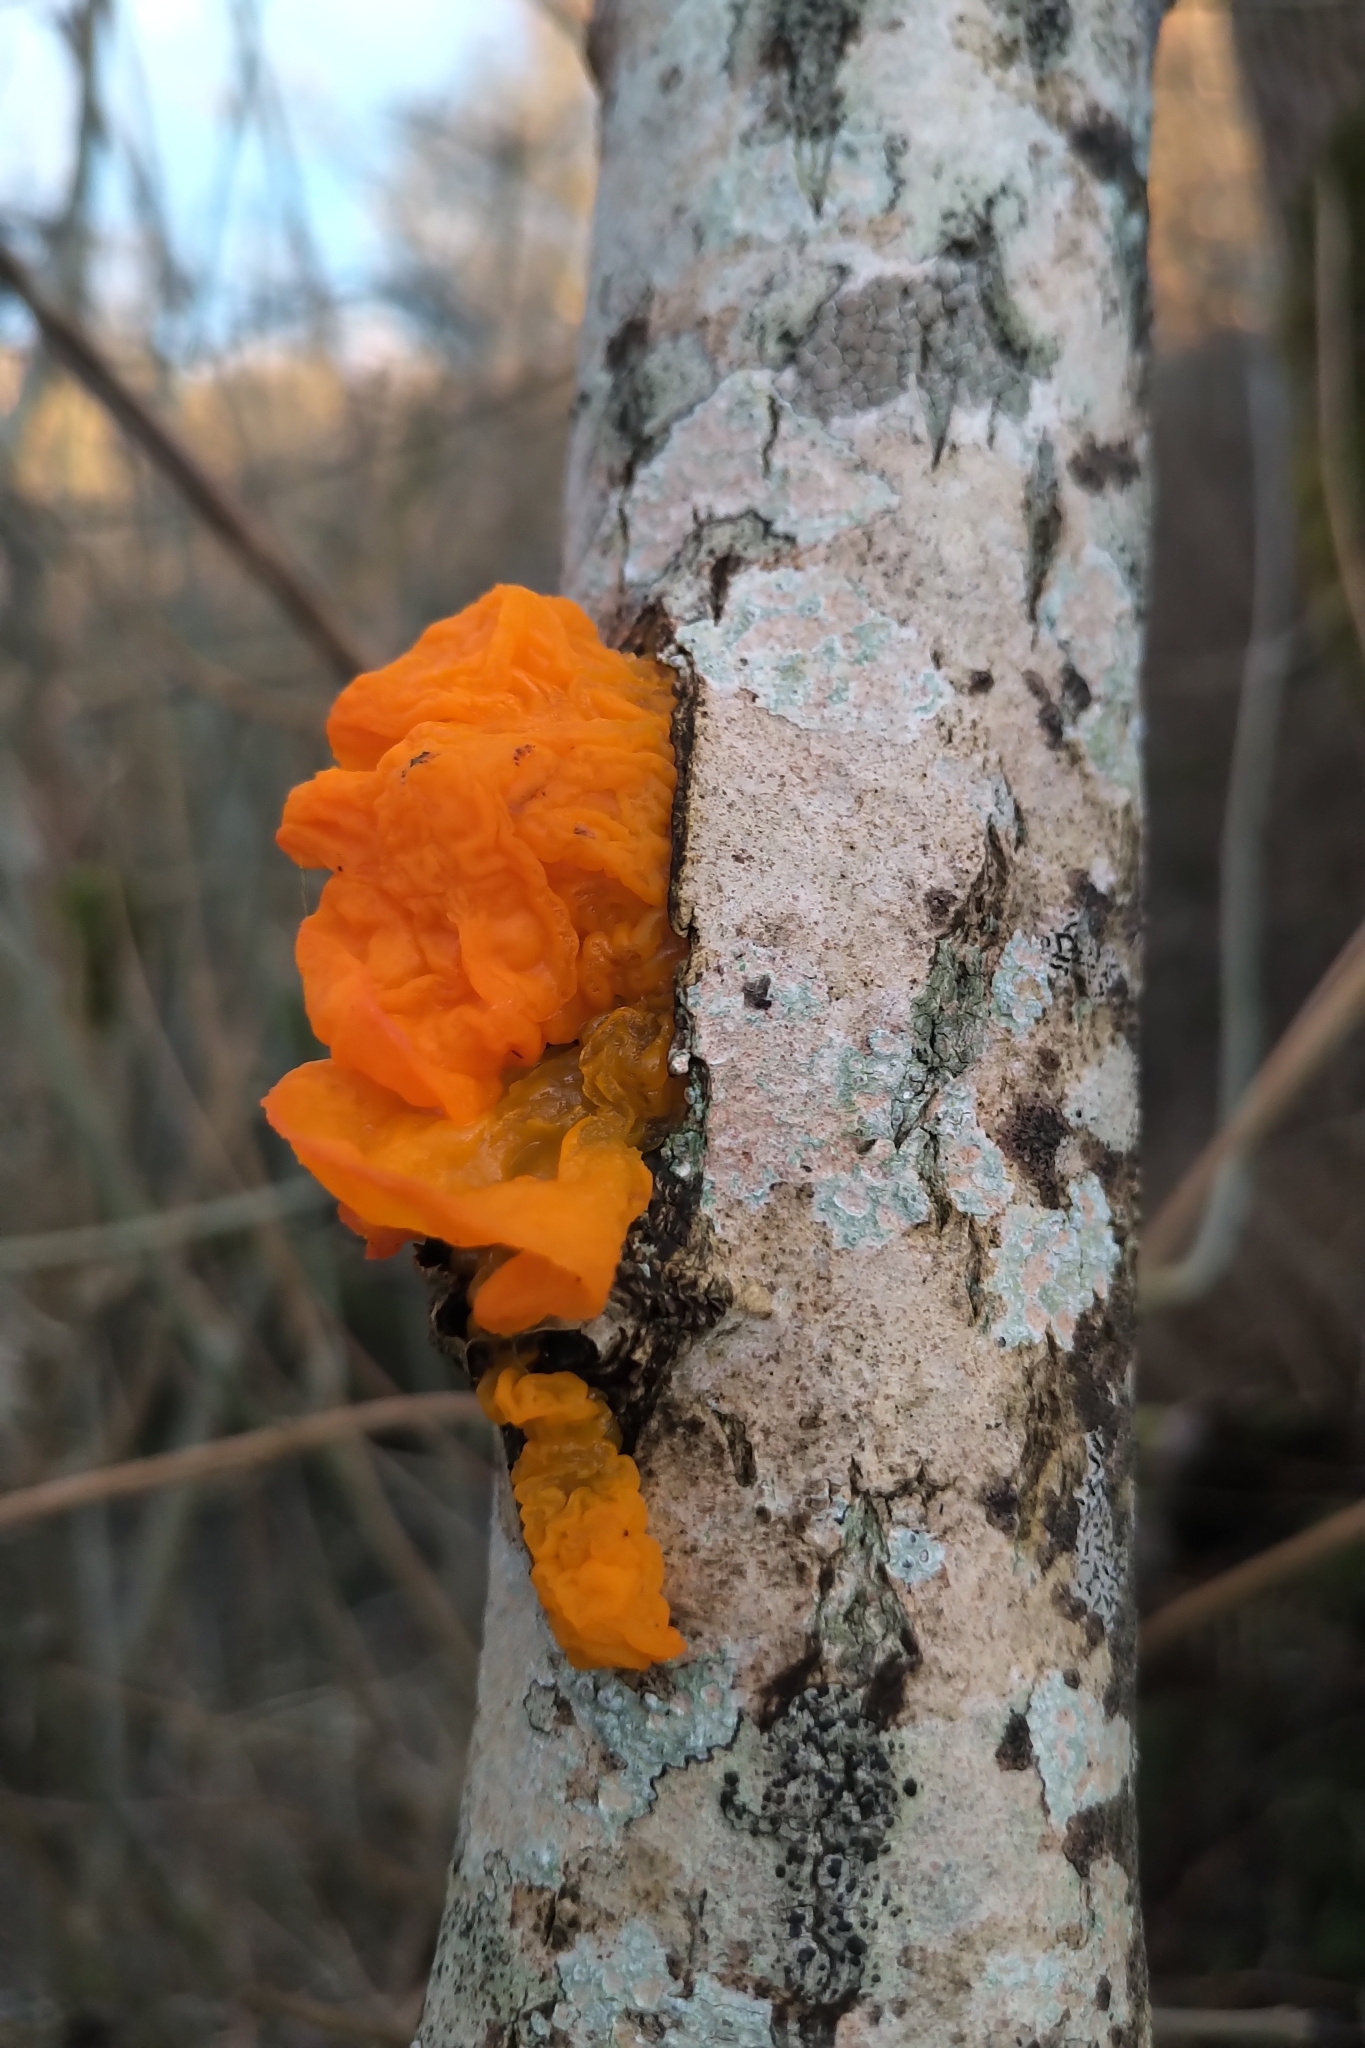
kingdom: Fungi
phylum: Basidiomycota
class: Tremellomycetes
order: Tremellales
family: Tremellaceae
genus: Tremella
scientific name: Tremella mesenterica
